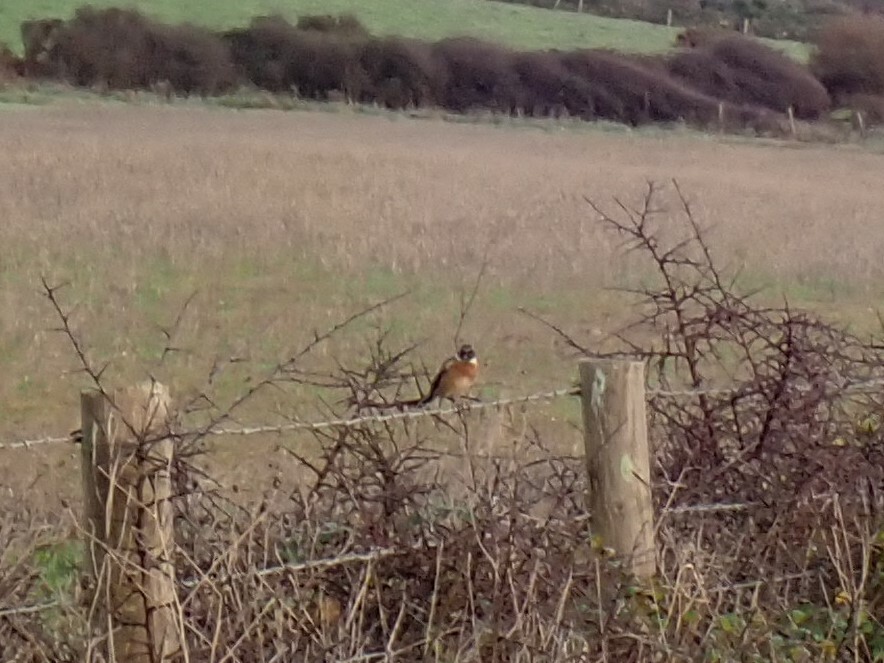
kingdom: Animalia
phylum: Chordata
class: Aves
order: Passeriformes
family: Muscicapidae
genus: Saxicola
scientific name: Saxicola rubicola
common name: European stonechat
